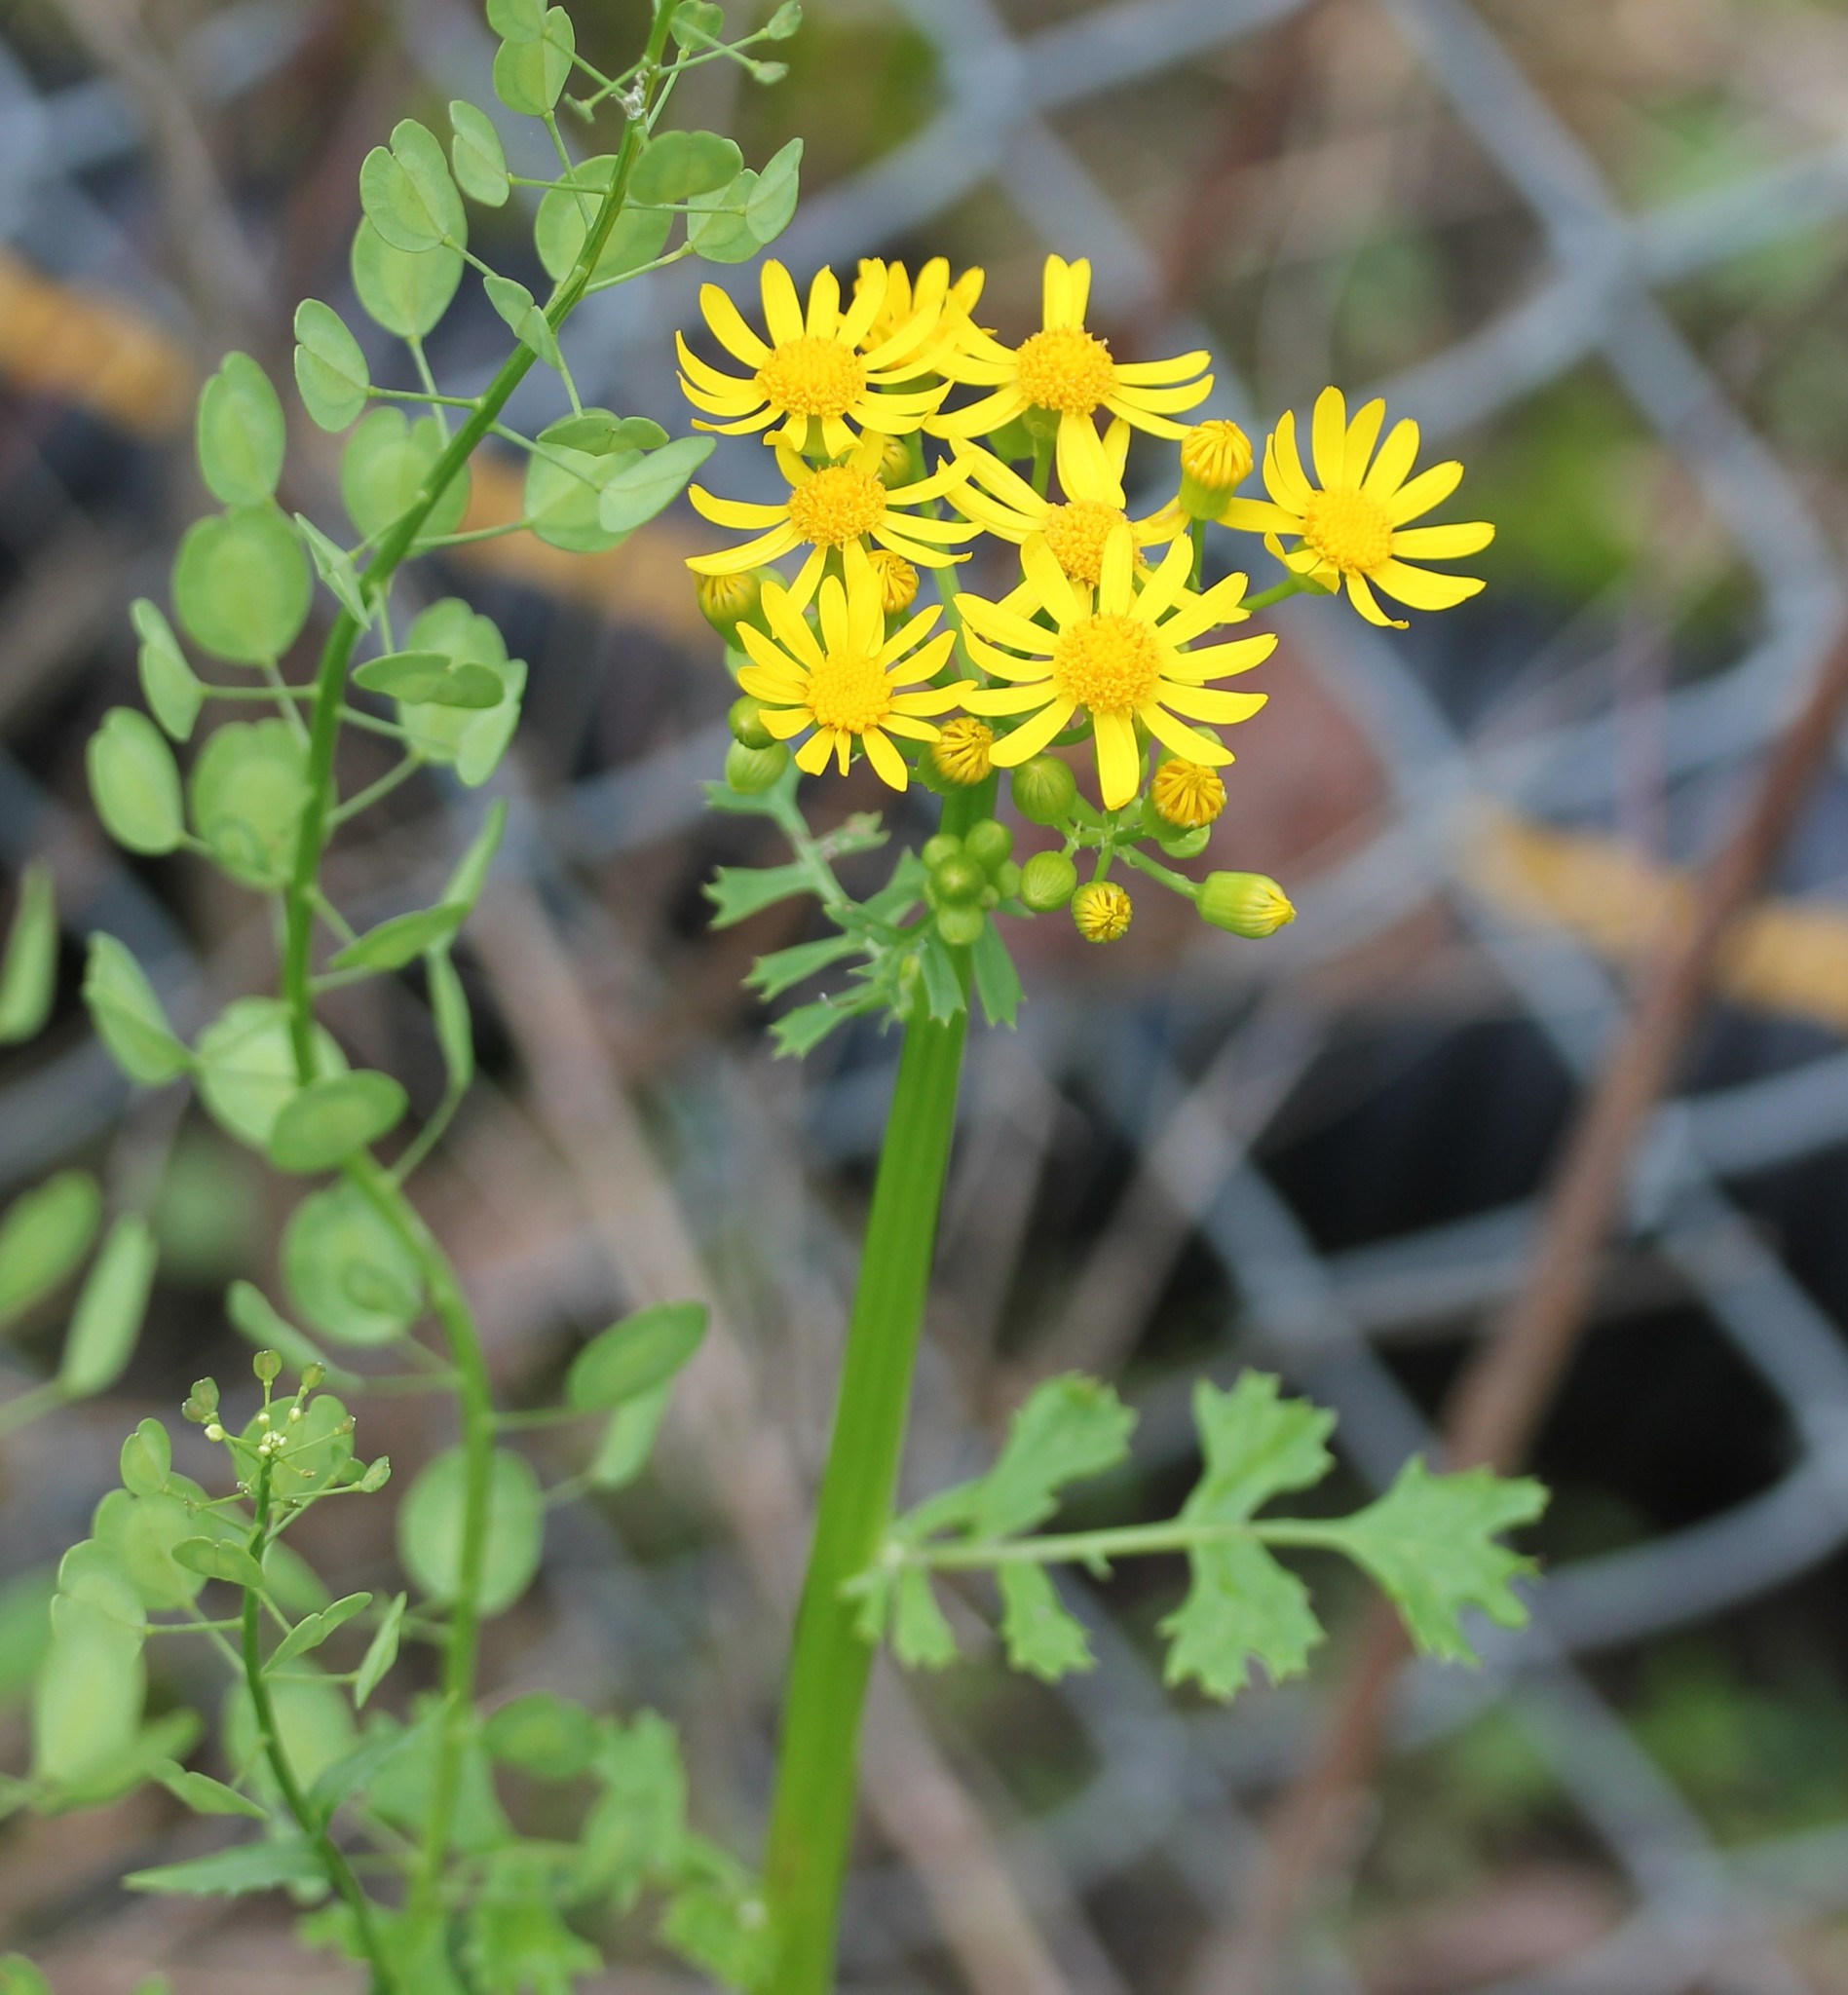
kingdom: Plantae
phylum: Tracheophyta
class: Magnoliopsida
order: Asterales
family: Asteraceae
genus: Packera
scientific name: Packera glabella
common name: Butterweed
